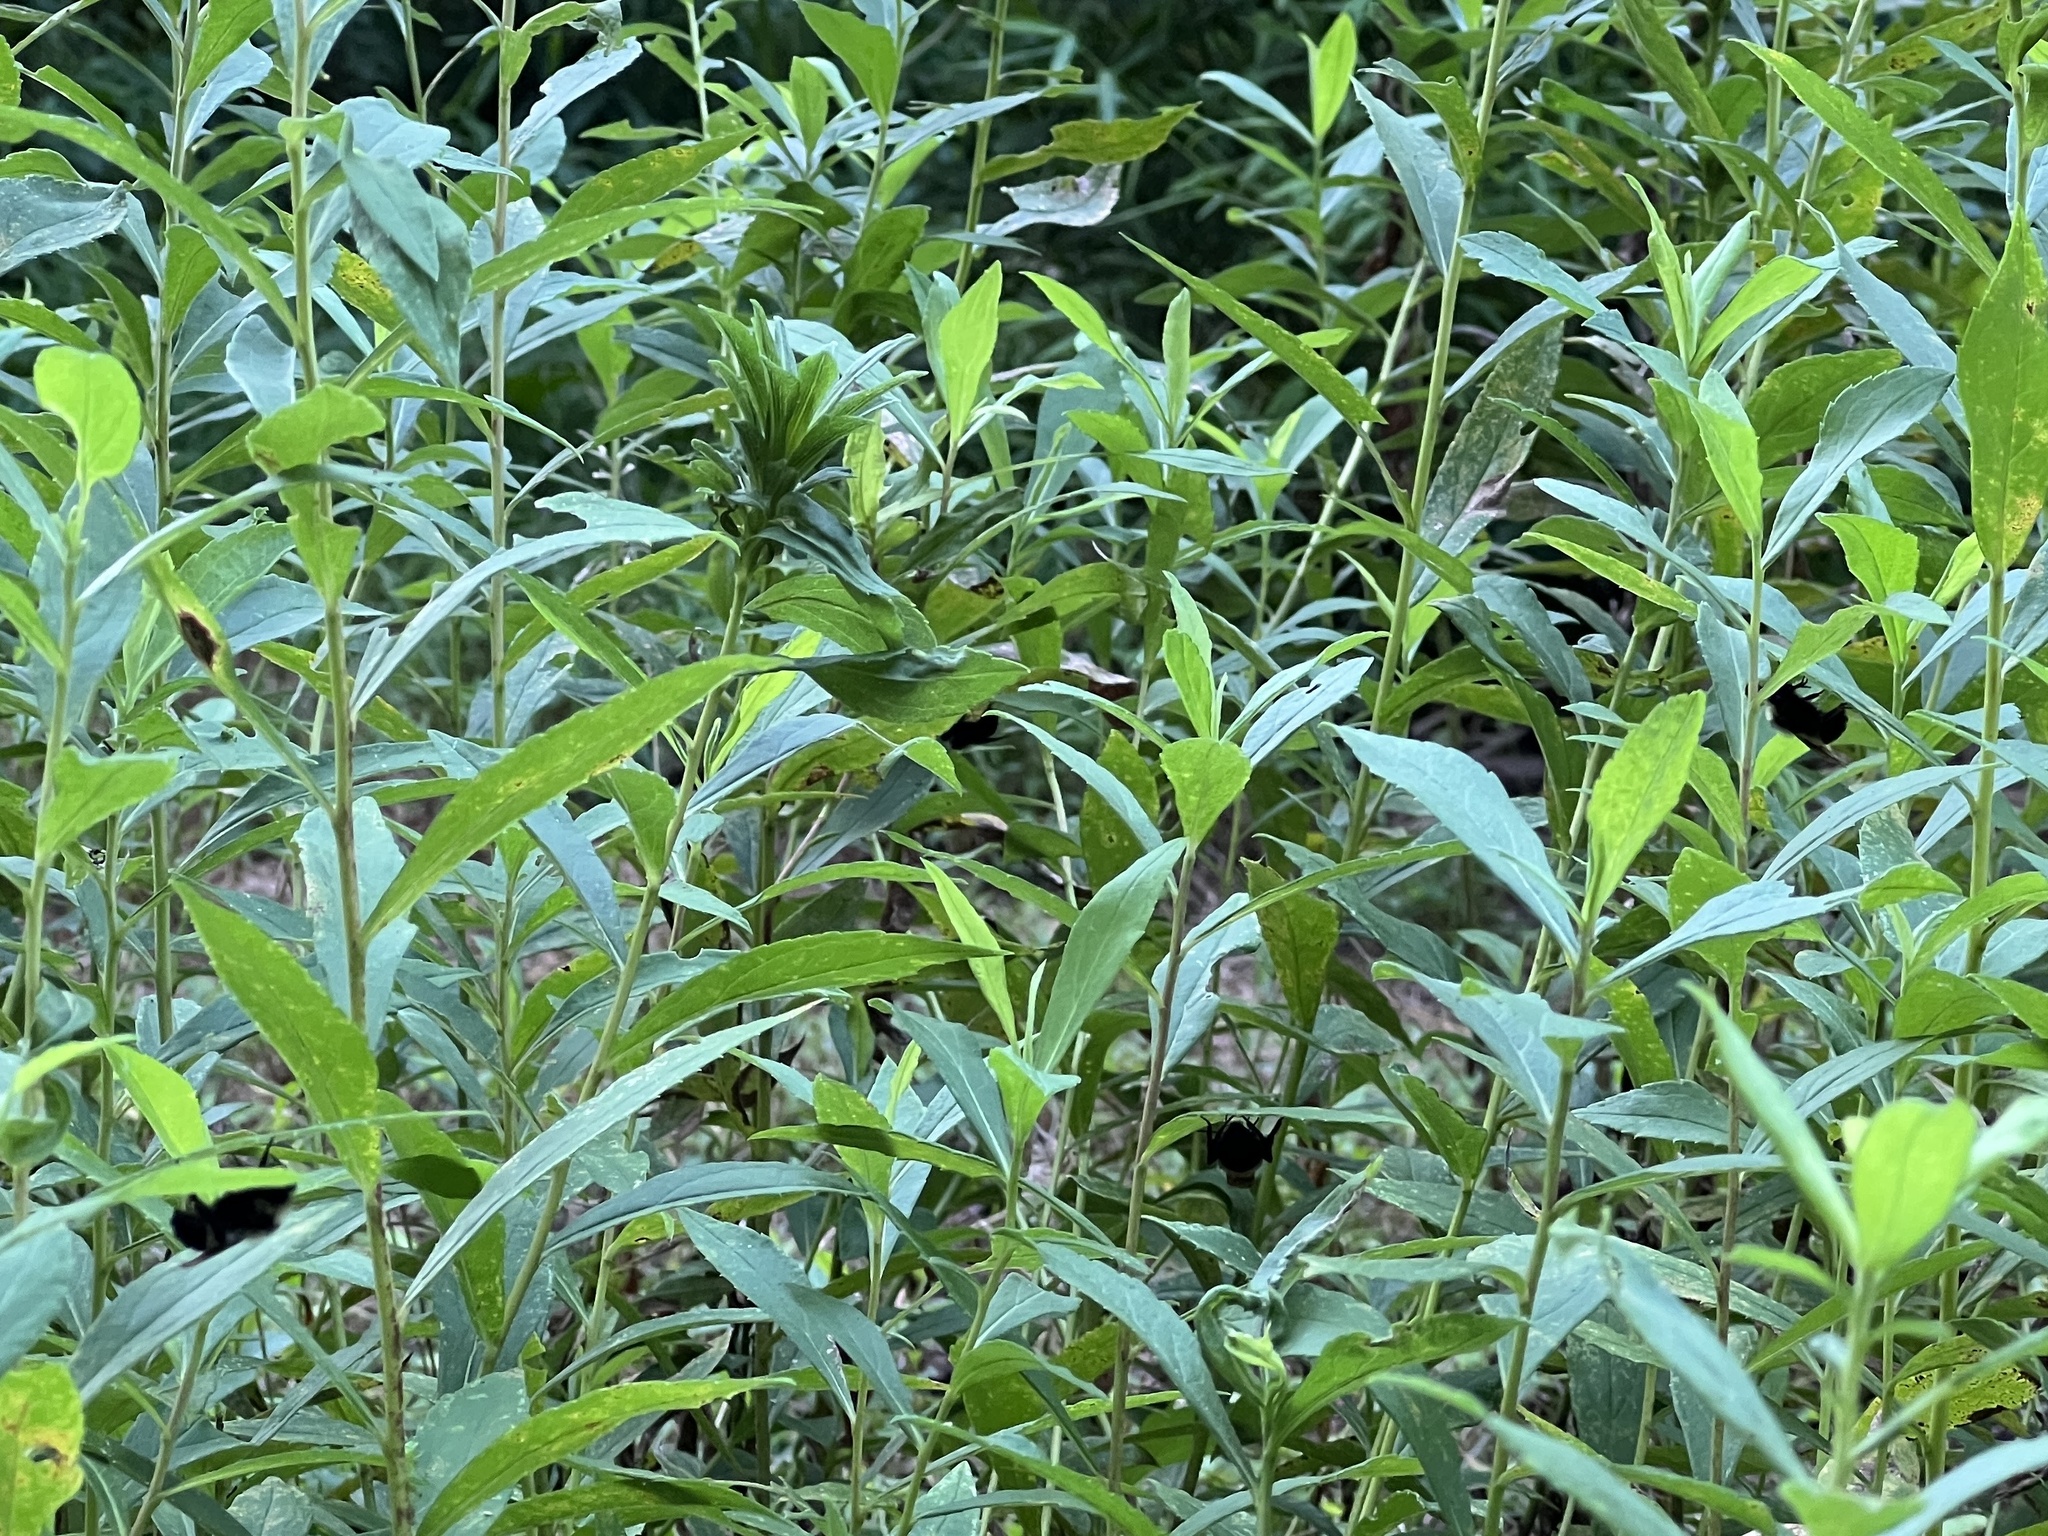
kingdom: Animalia
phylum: Arthropoda
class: Insecta
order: Hymenoptera
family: Apidae
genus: Bombus
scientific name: Bombus citrinus
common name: Lemon cuckoo bumble bee
